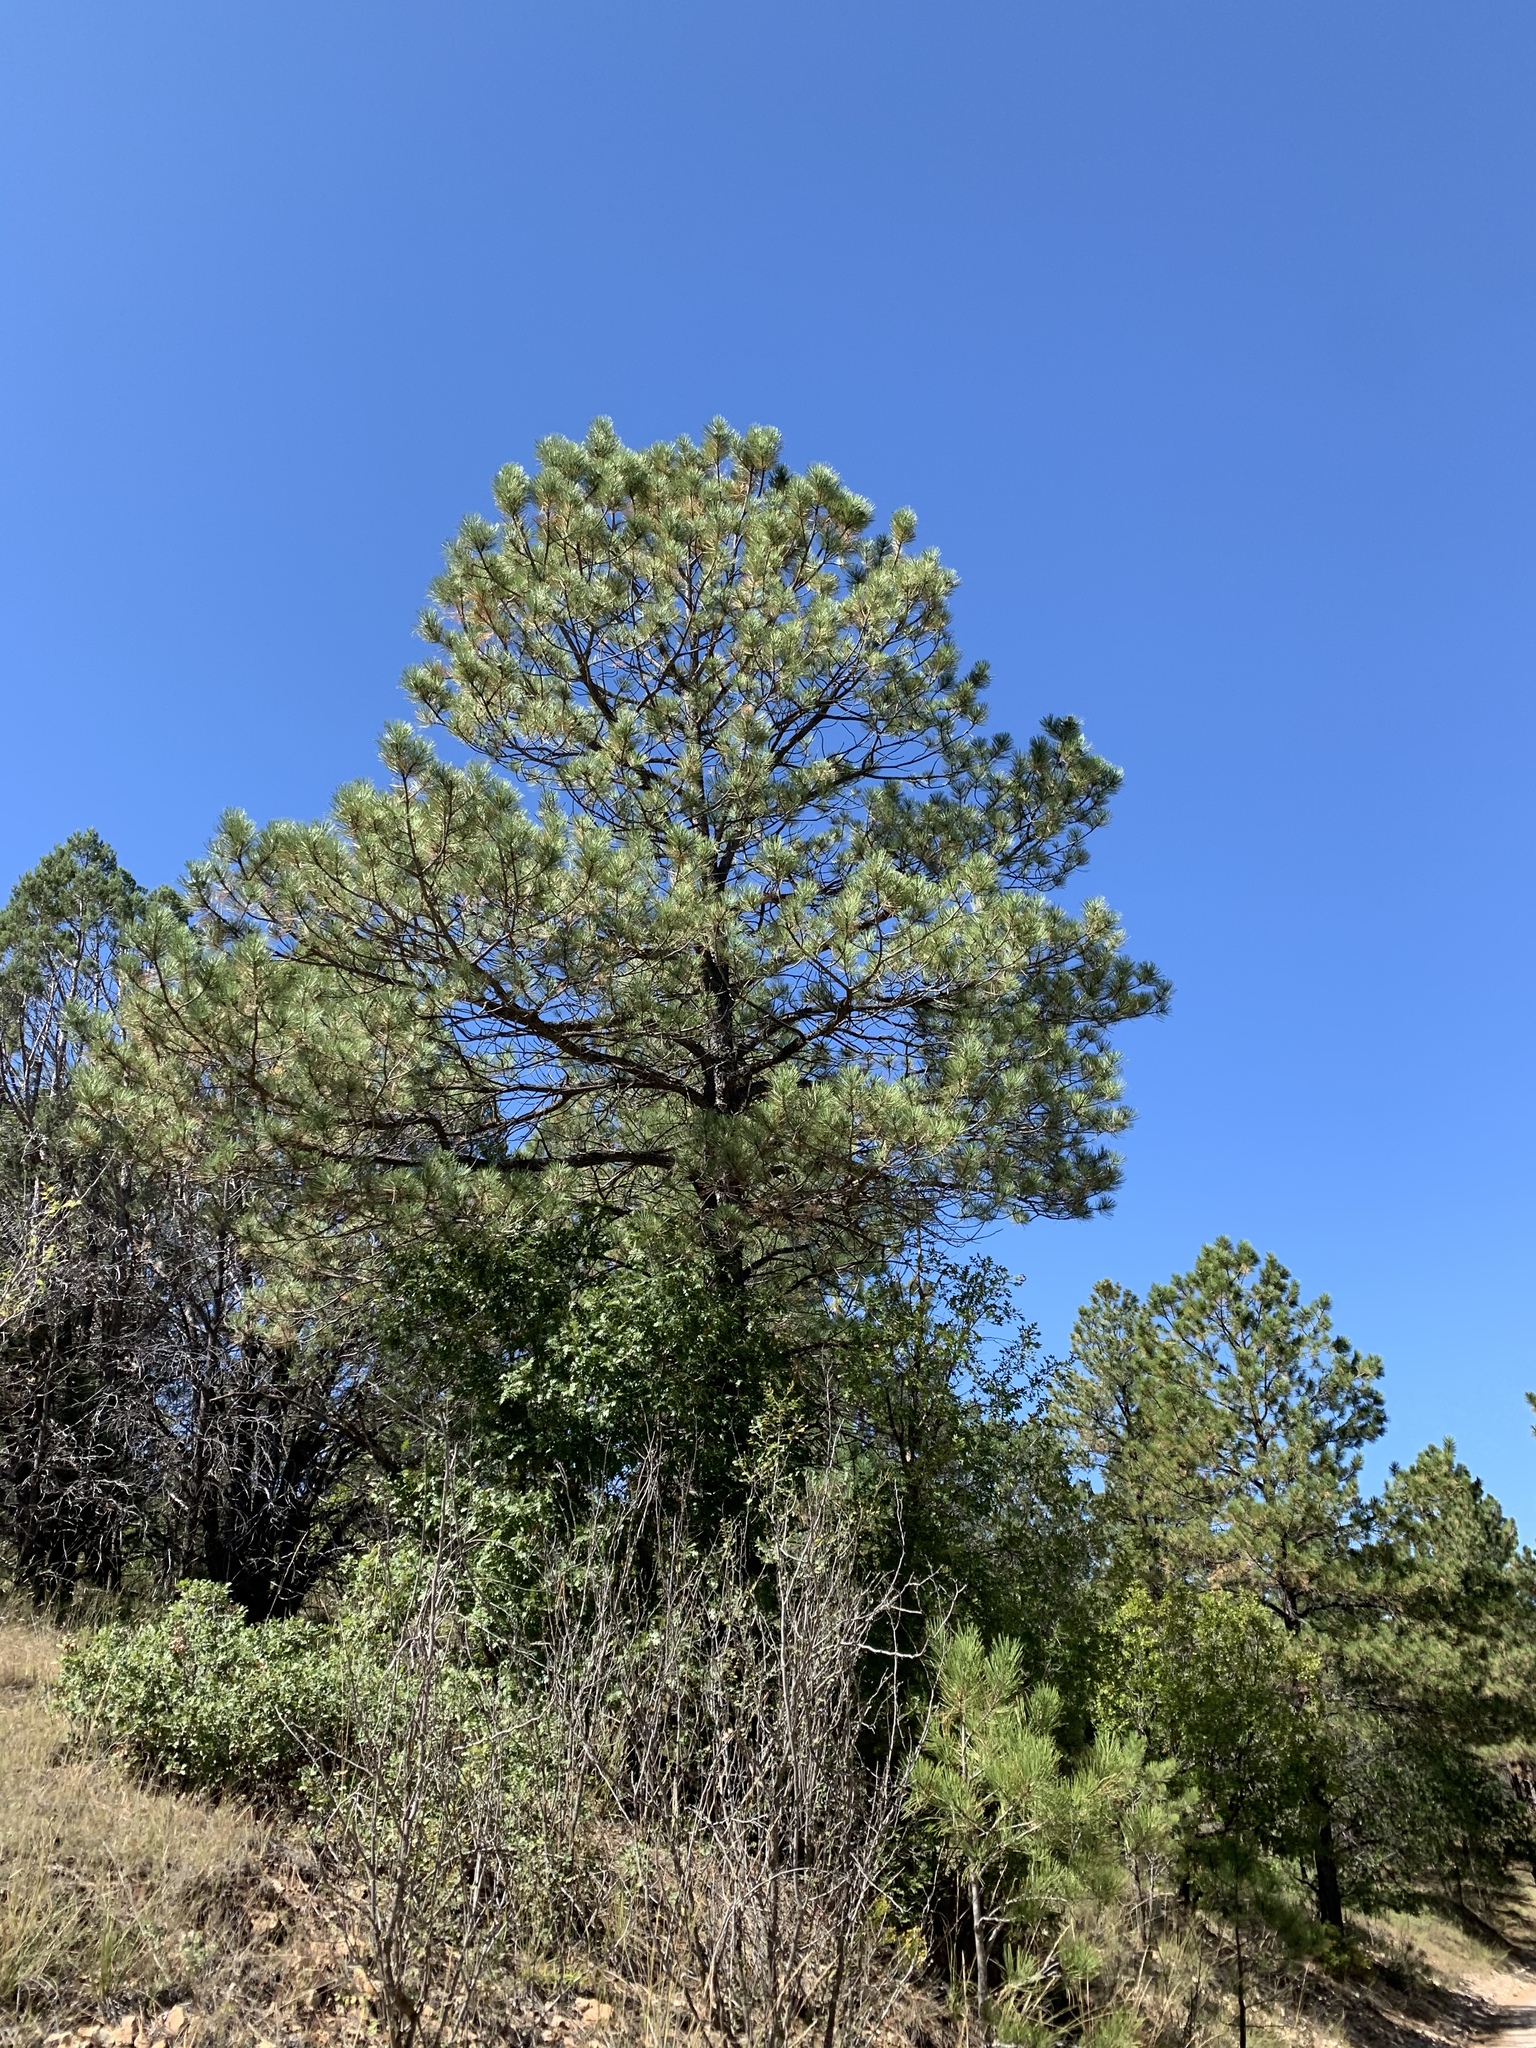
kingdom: Plantae
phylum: Tracheophyta
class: Pinopsida
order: Pinales
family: Pinaceae
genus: Pinus
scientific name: Pinus ponderosa
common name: Western yellow-pine
